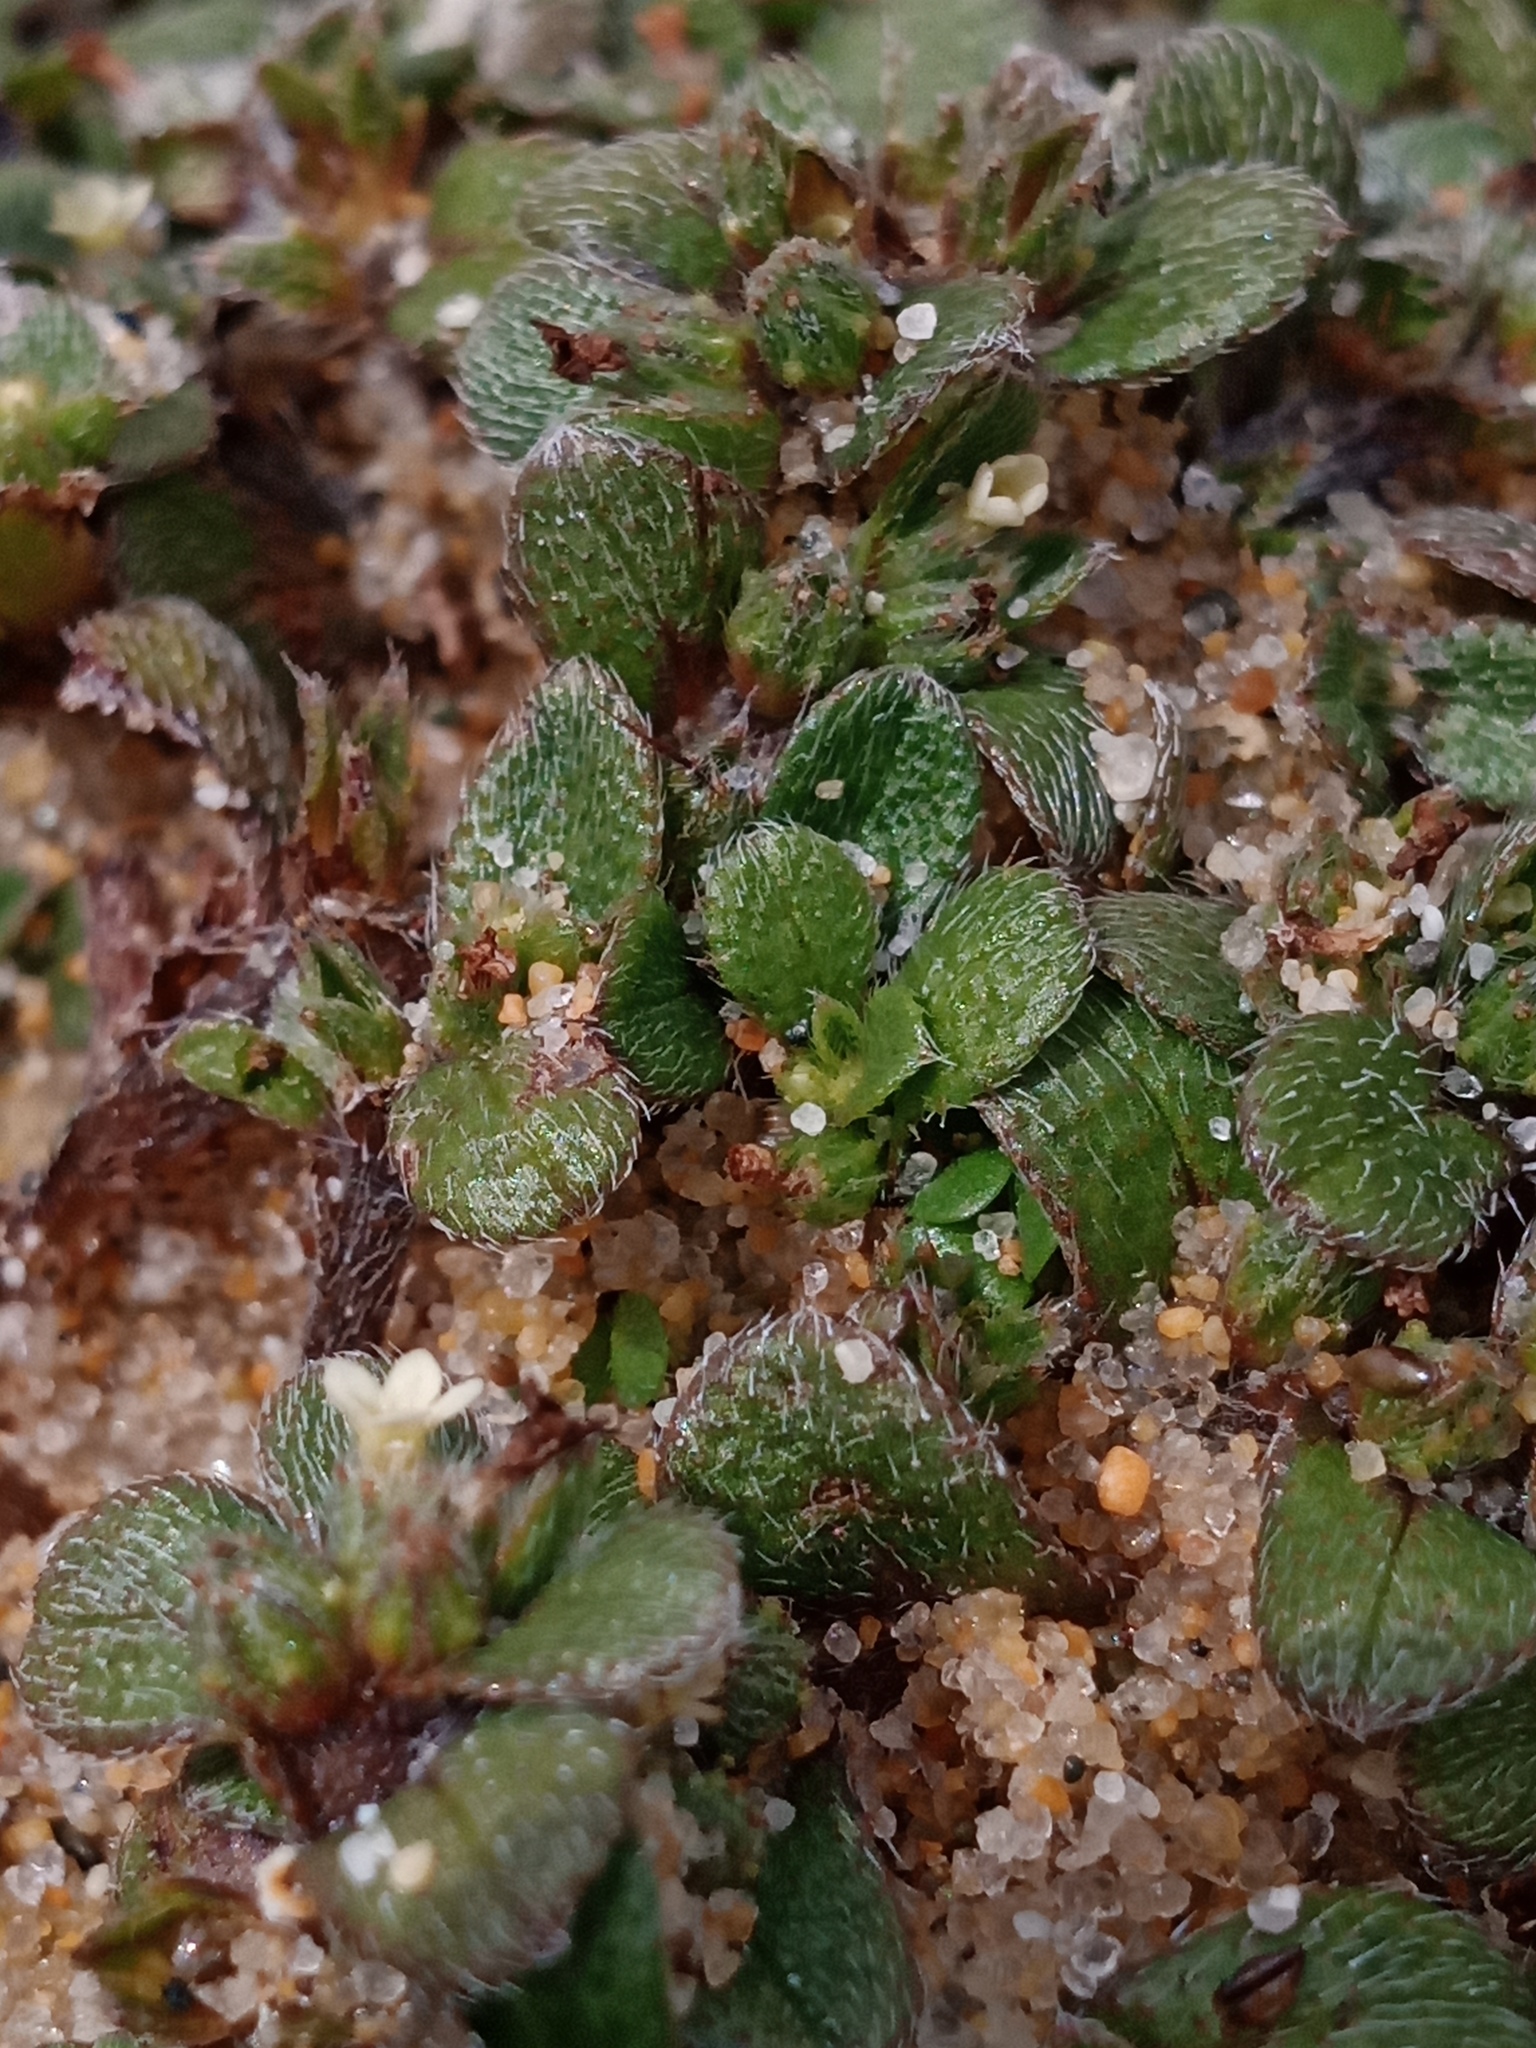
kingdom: Plantae
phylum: Tracheophyta
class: Magnoliopsida
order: Boraginales
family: Boraginaceae
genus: Myosotis
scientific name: Myosotis antarctica
